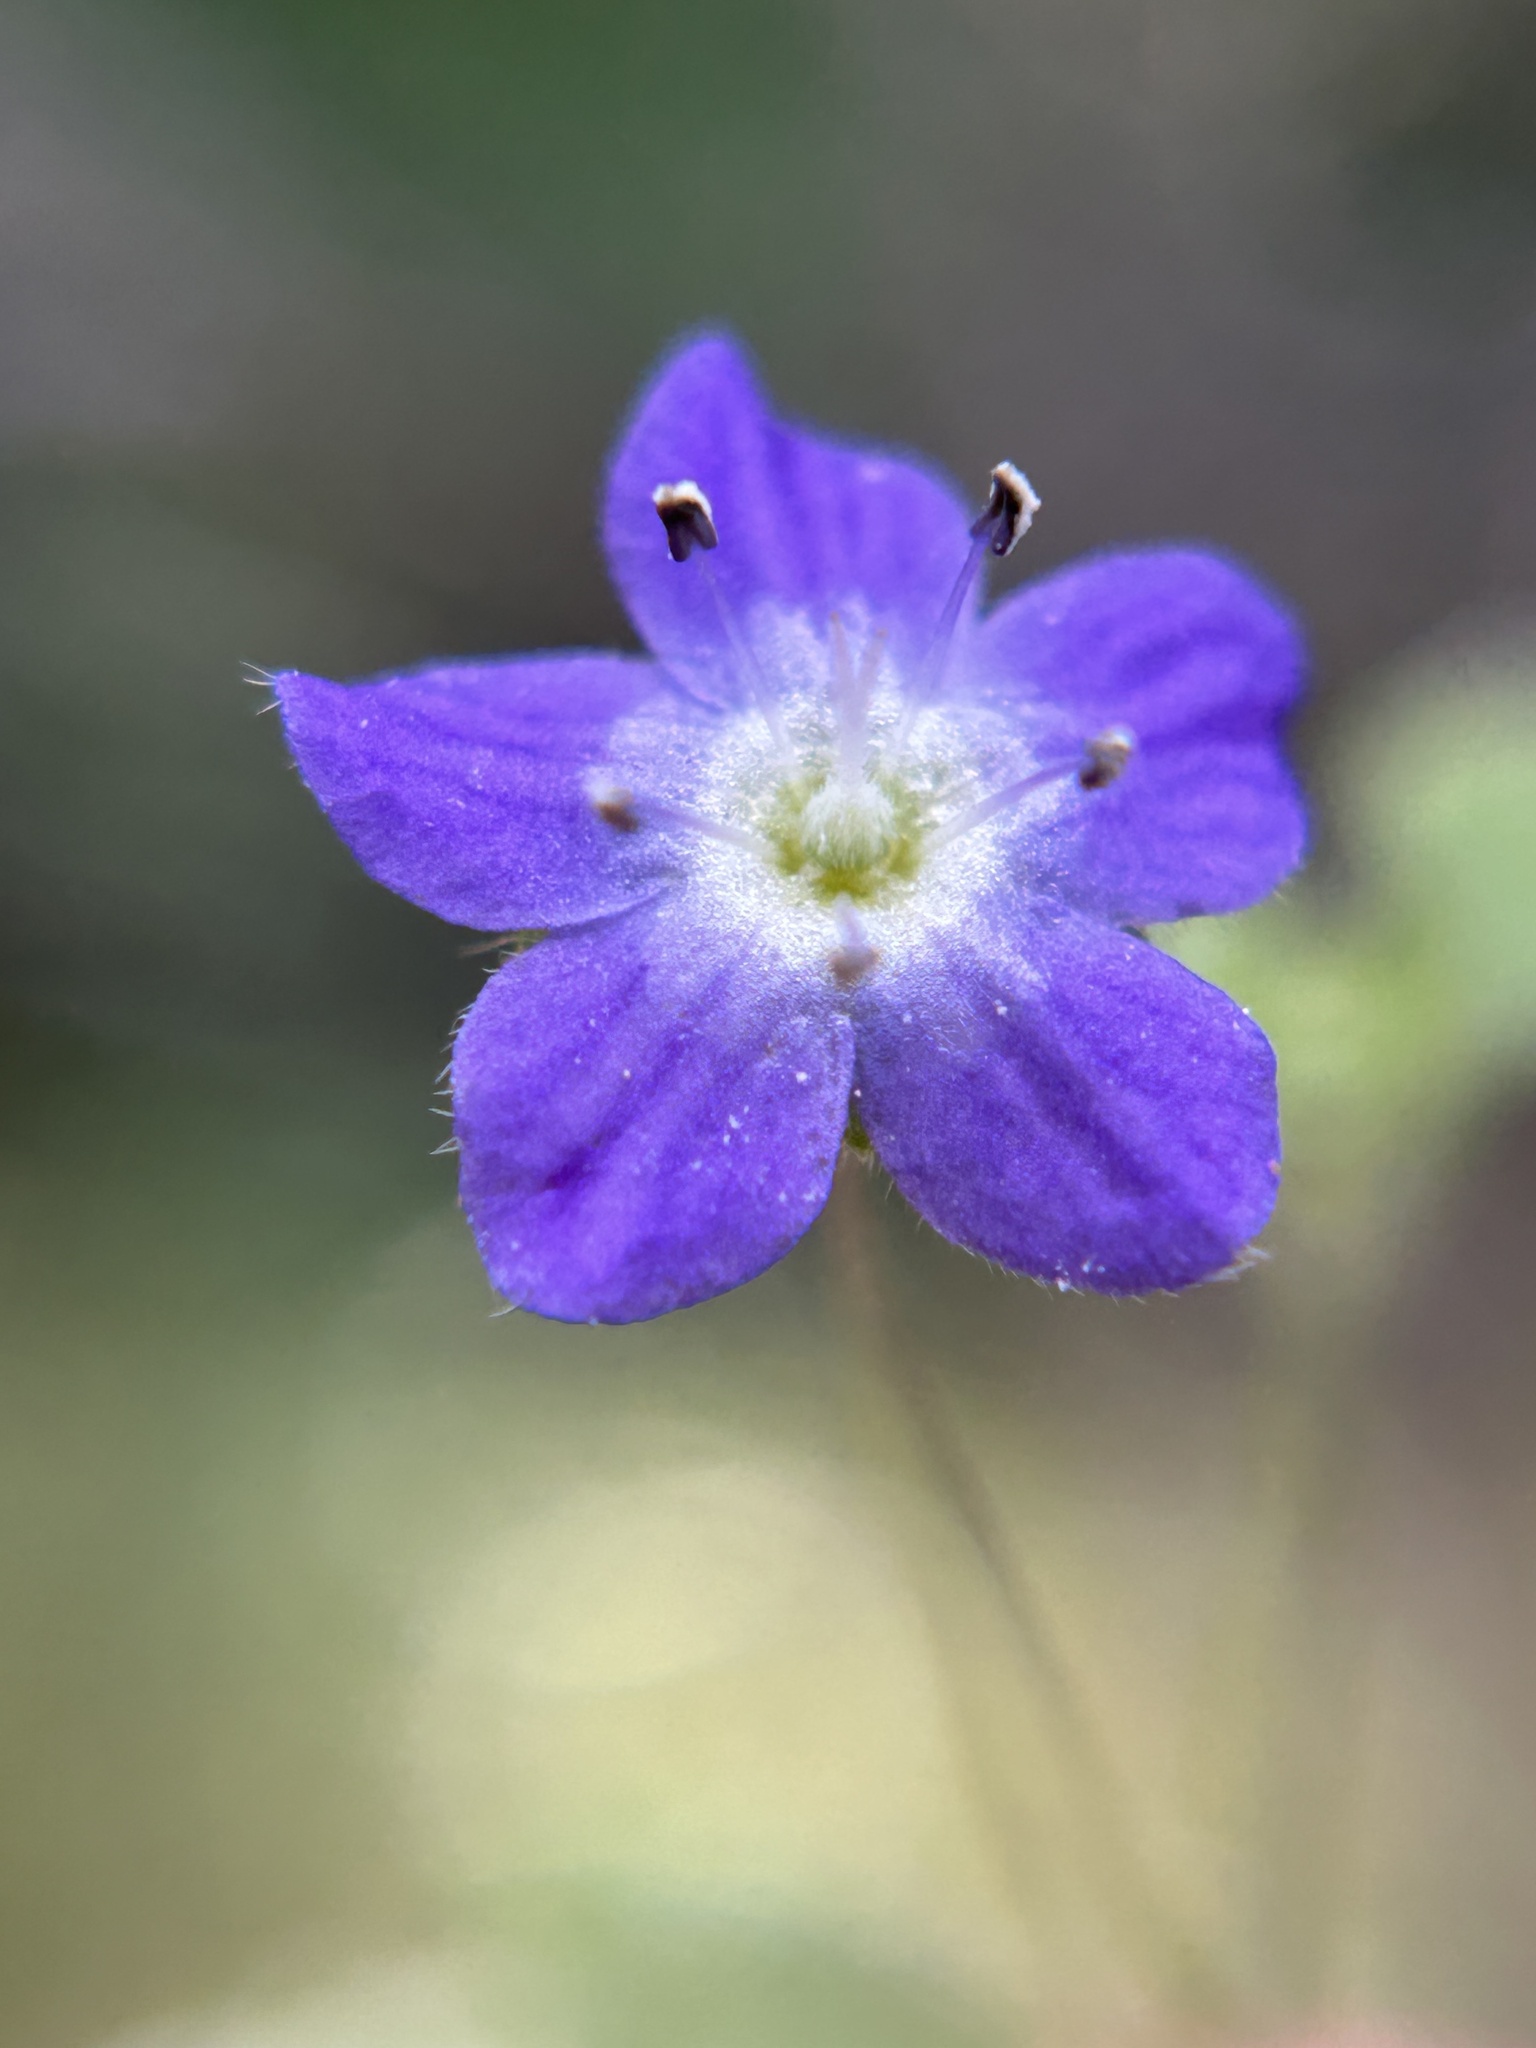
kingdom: Plantae
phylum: Tracheophyta
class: Magnoliopsida
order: Boraginales
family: Hydrophyllaceae
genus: Nemophila
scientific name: Nemophila pulchella
